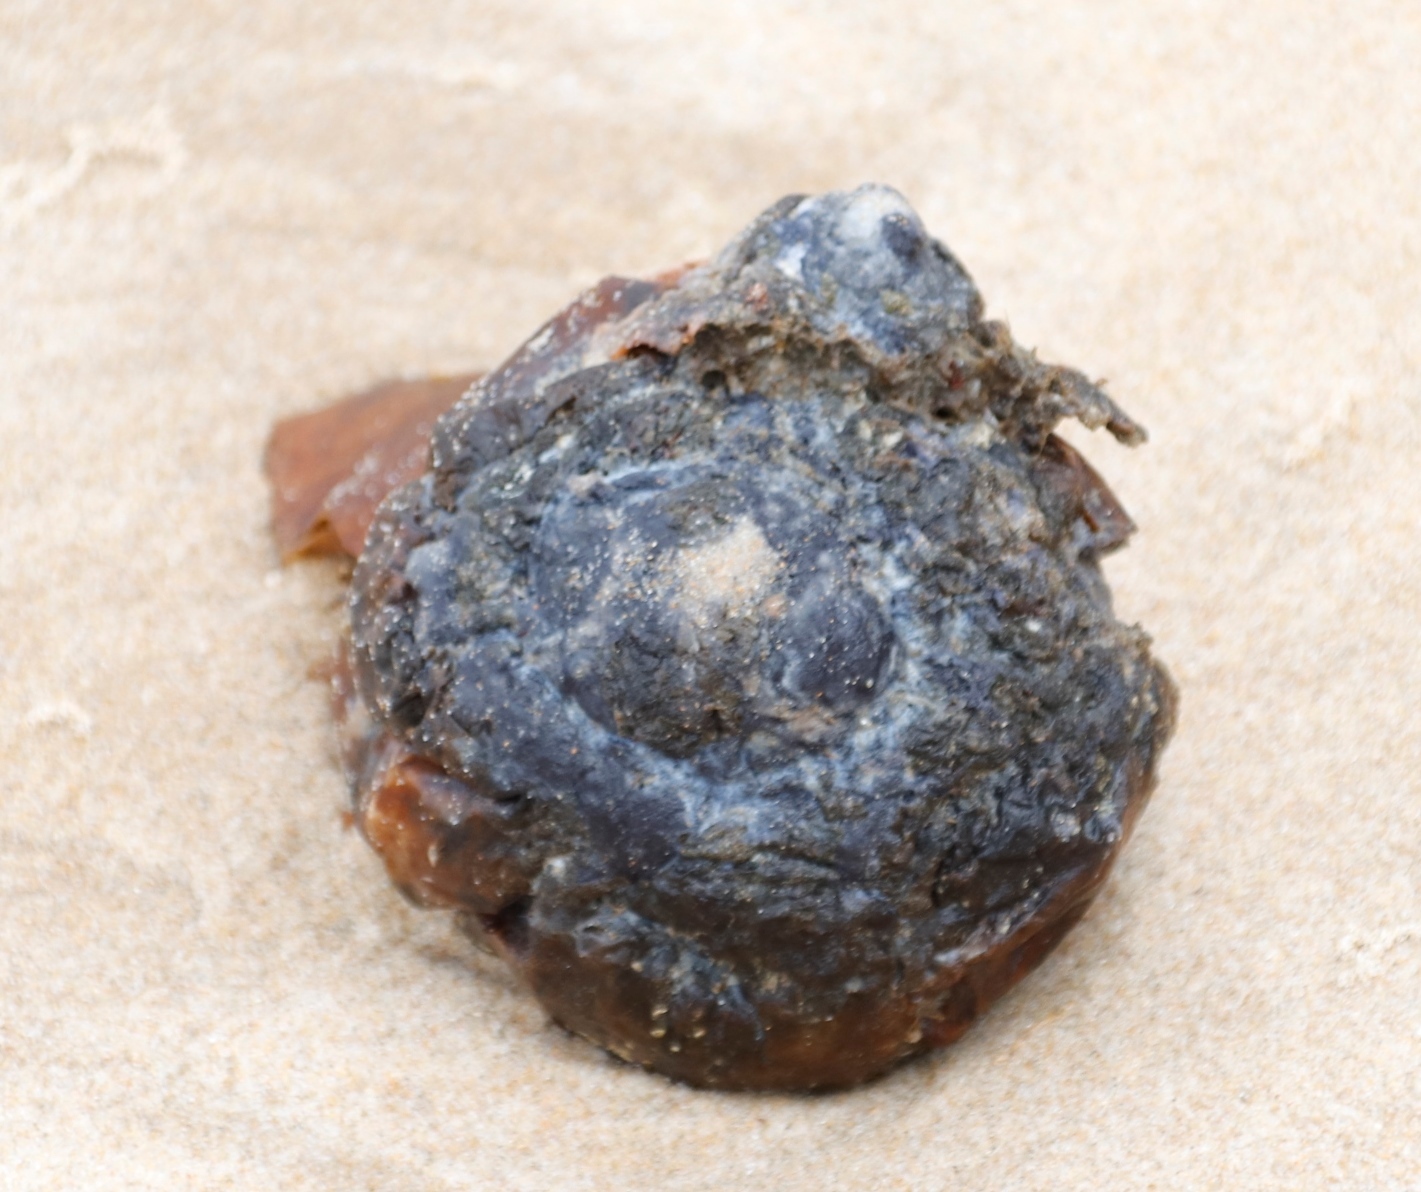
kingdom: Animalia
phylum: Chordata
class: Ascidiacea
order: Stolidobranchia
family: Pyuridae
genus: Pyura
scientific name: Pyura stolonifera
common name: Red bait
